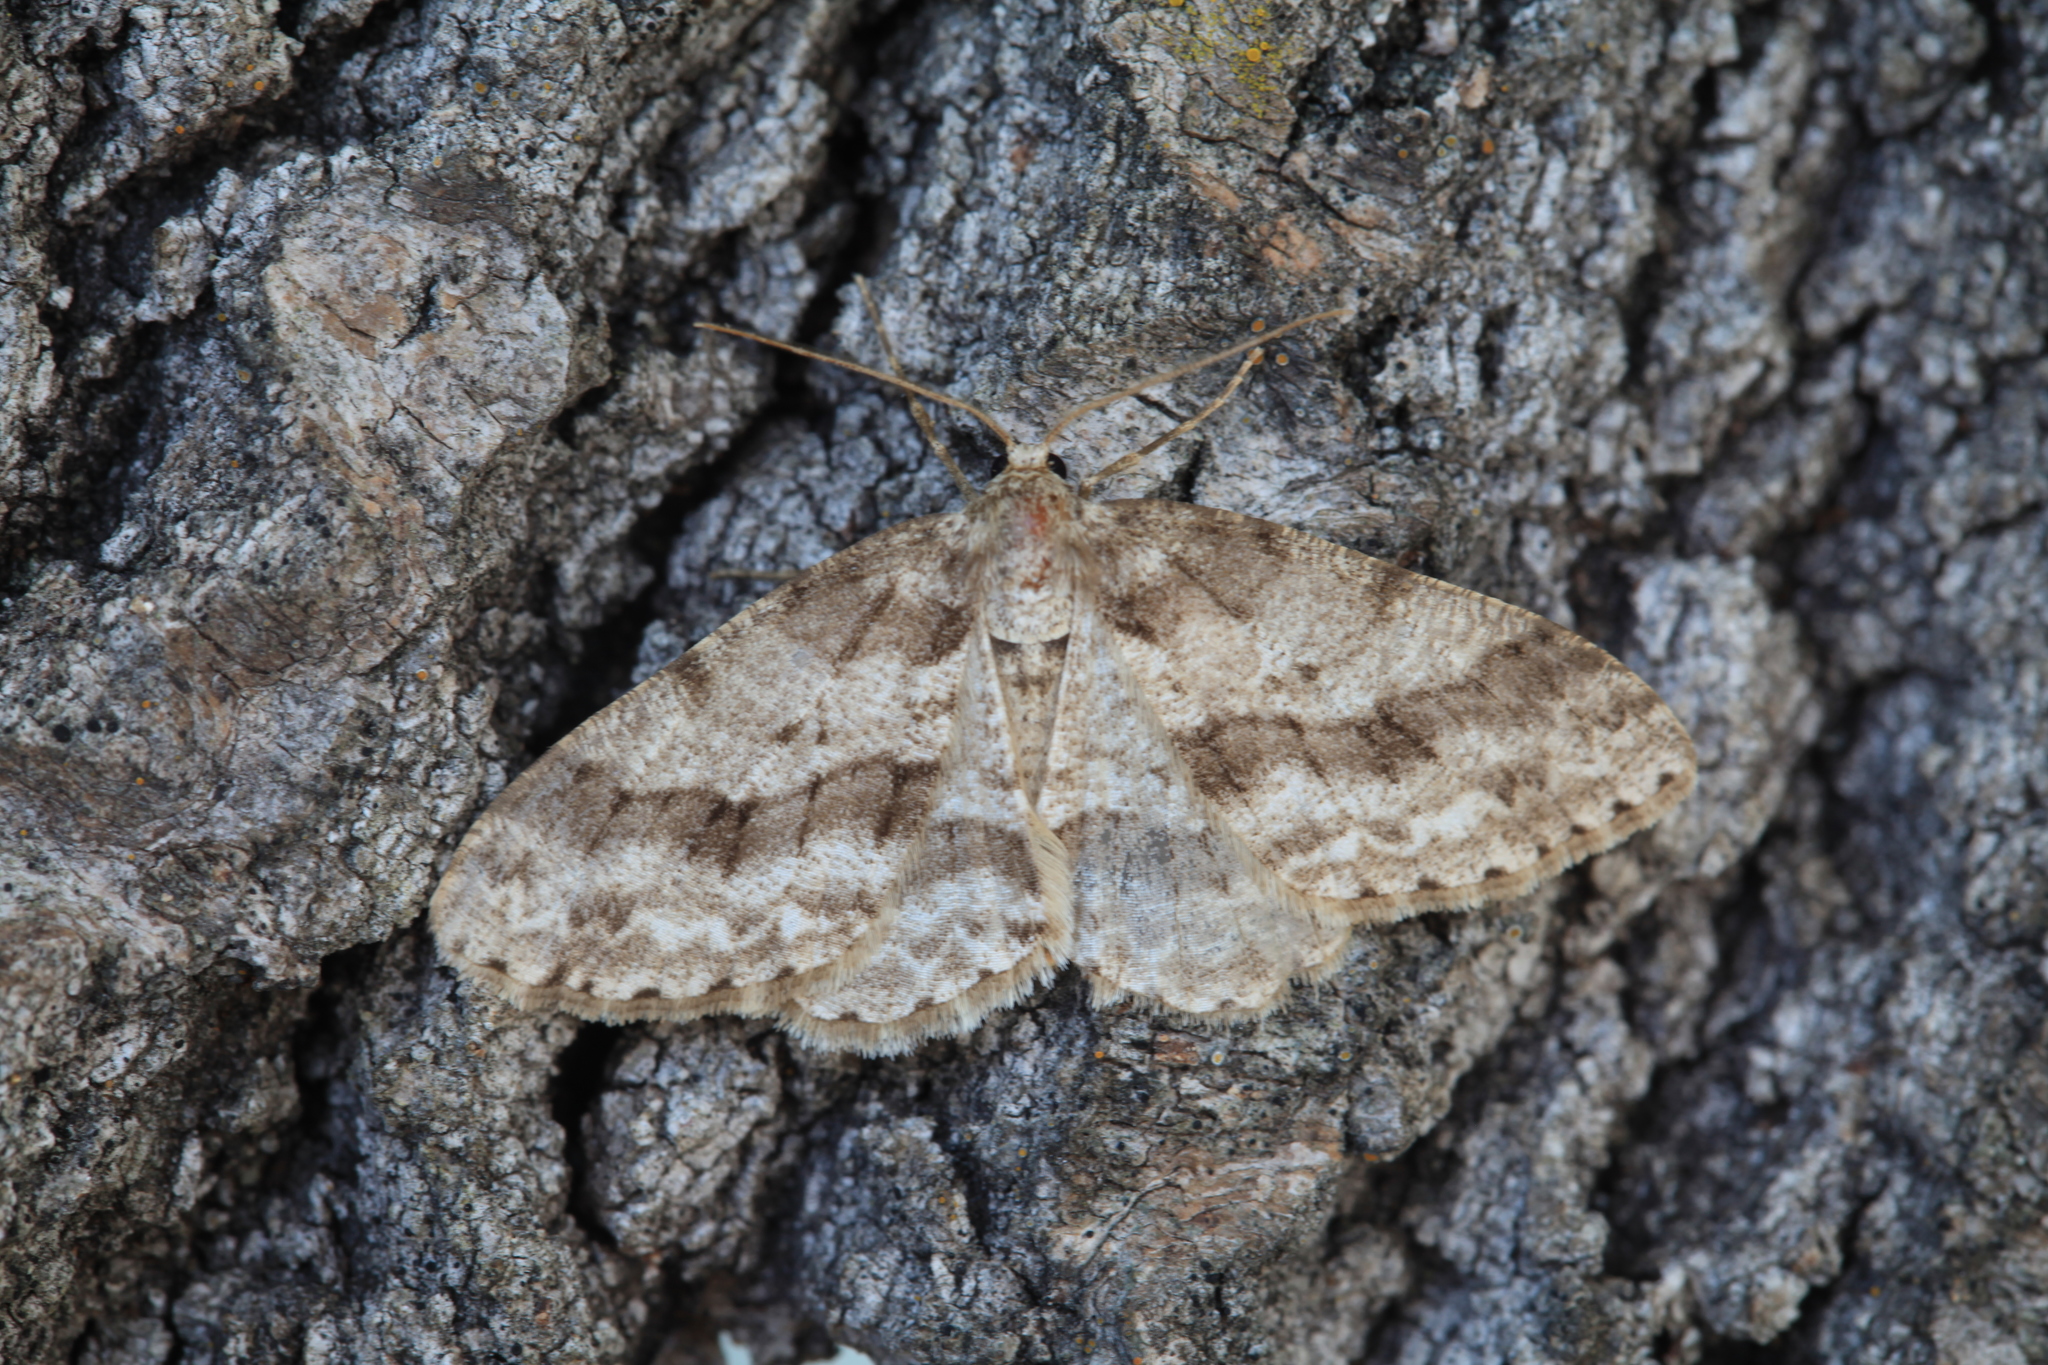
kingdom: Animalia
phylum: Arthropoda
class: Insecta
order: Lepidoptera
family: Geometridae
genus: Ectropis
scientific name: Ectropis crepuscularia
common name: Engrailed
